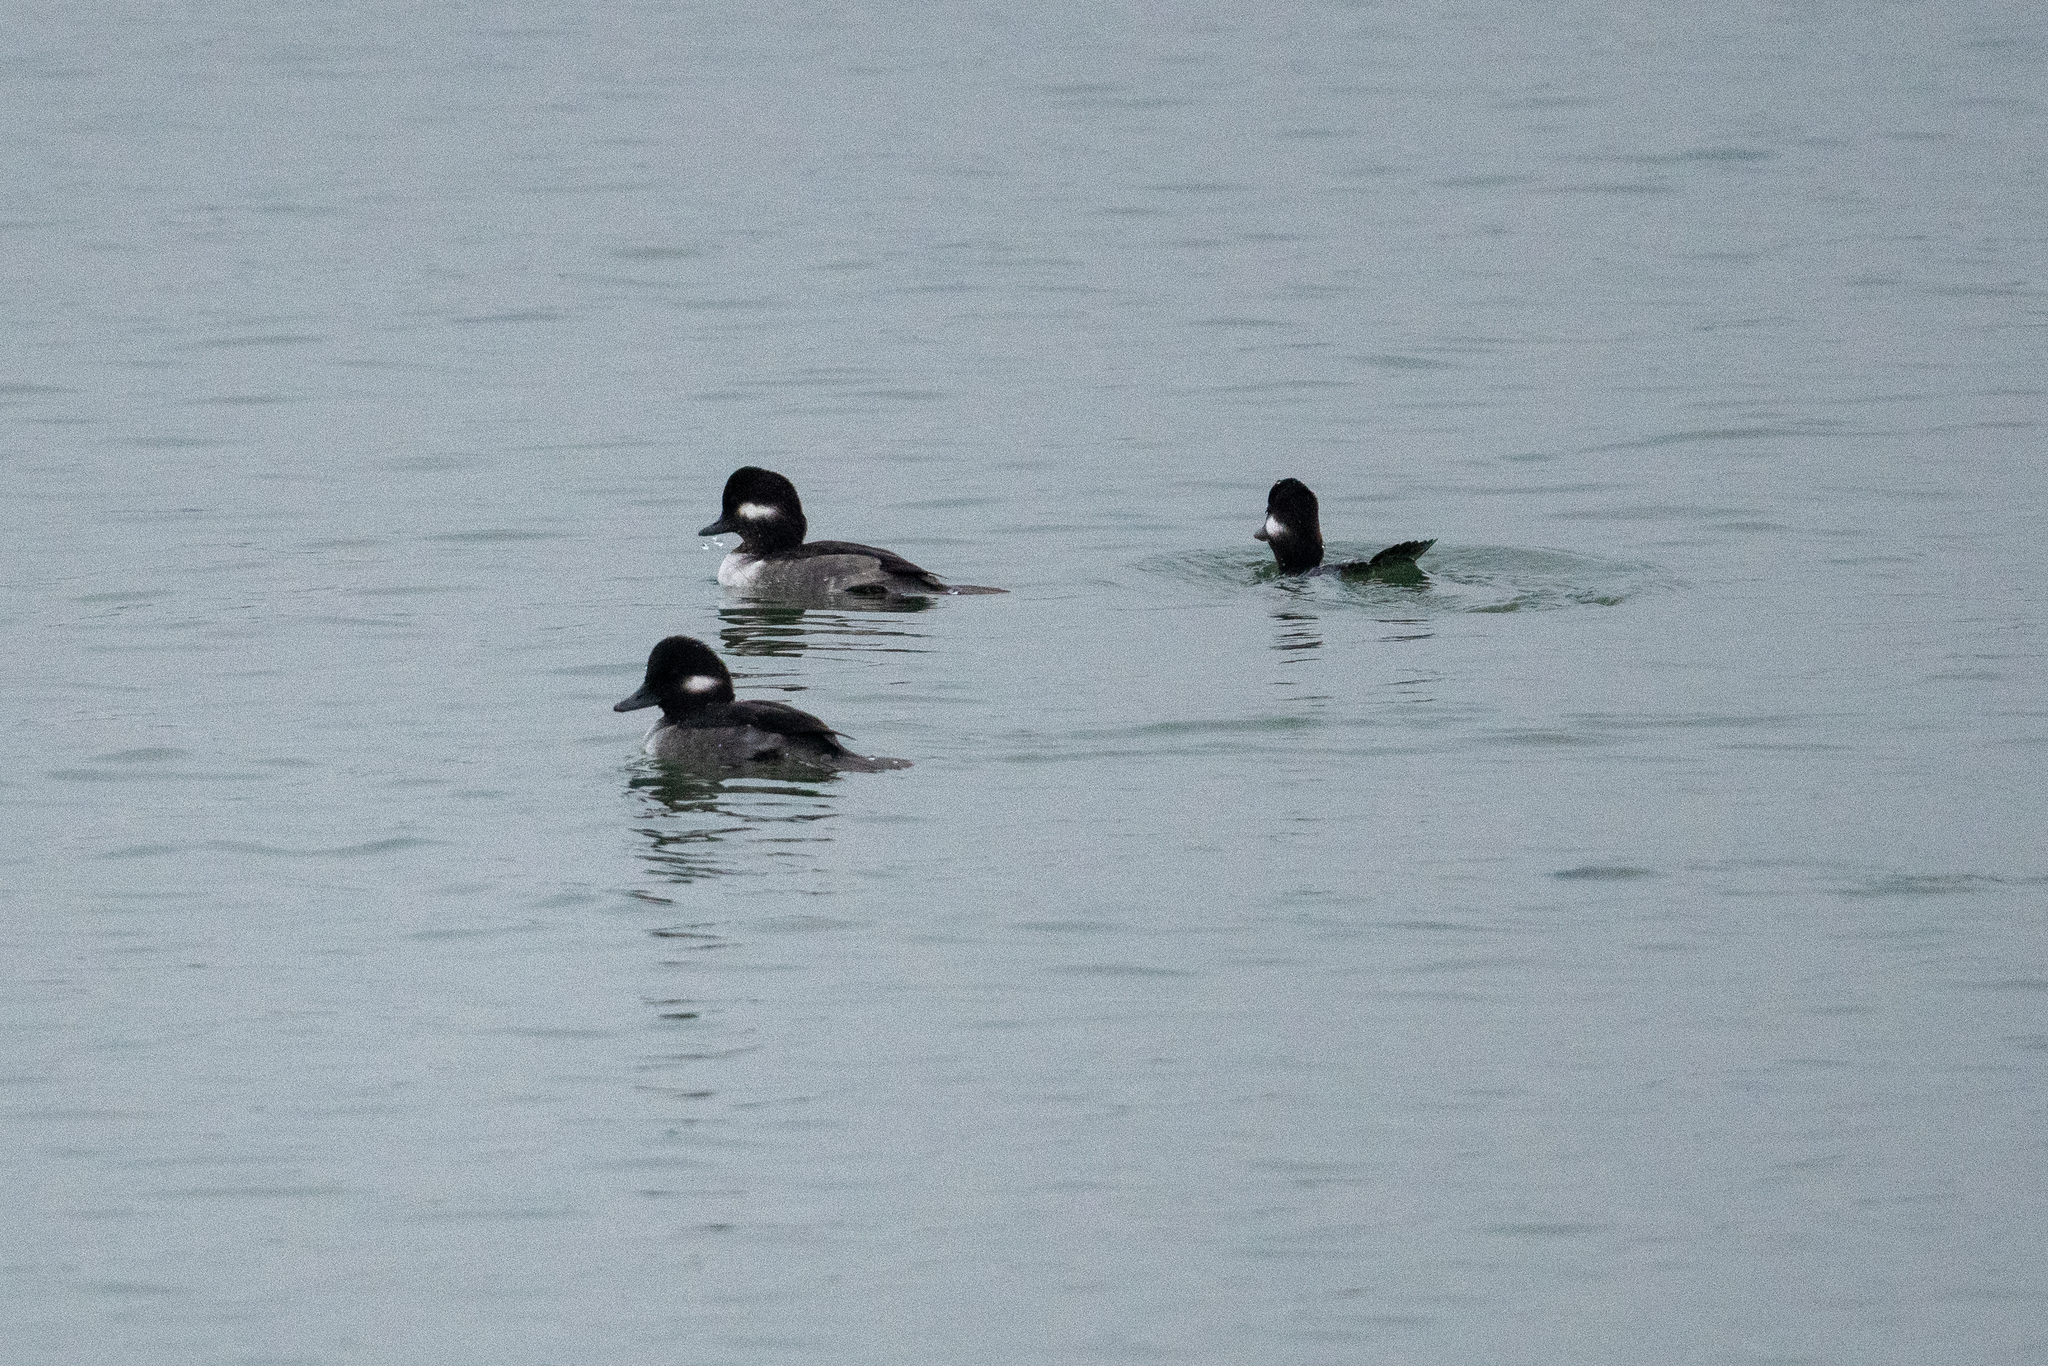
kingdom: Animalia
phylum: Chordata
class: Aves
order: Anseriformes
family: Anatidae
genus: Bucephala
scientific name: Bucephala albeola
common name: Bufflehead
